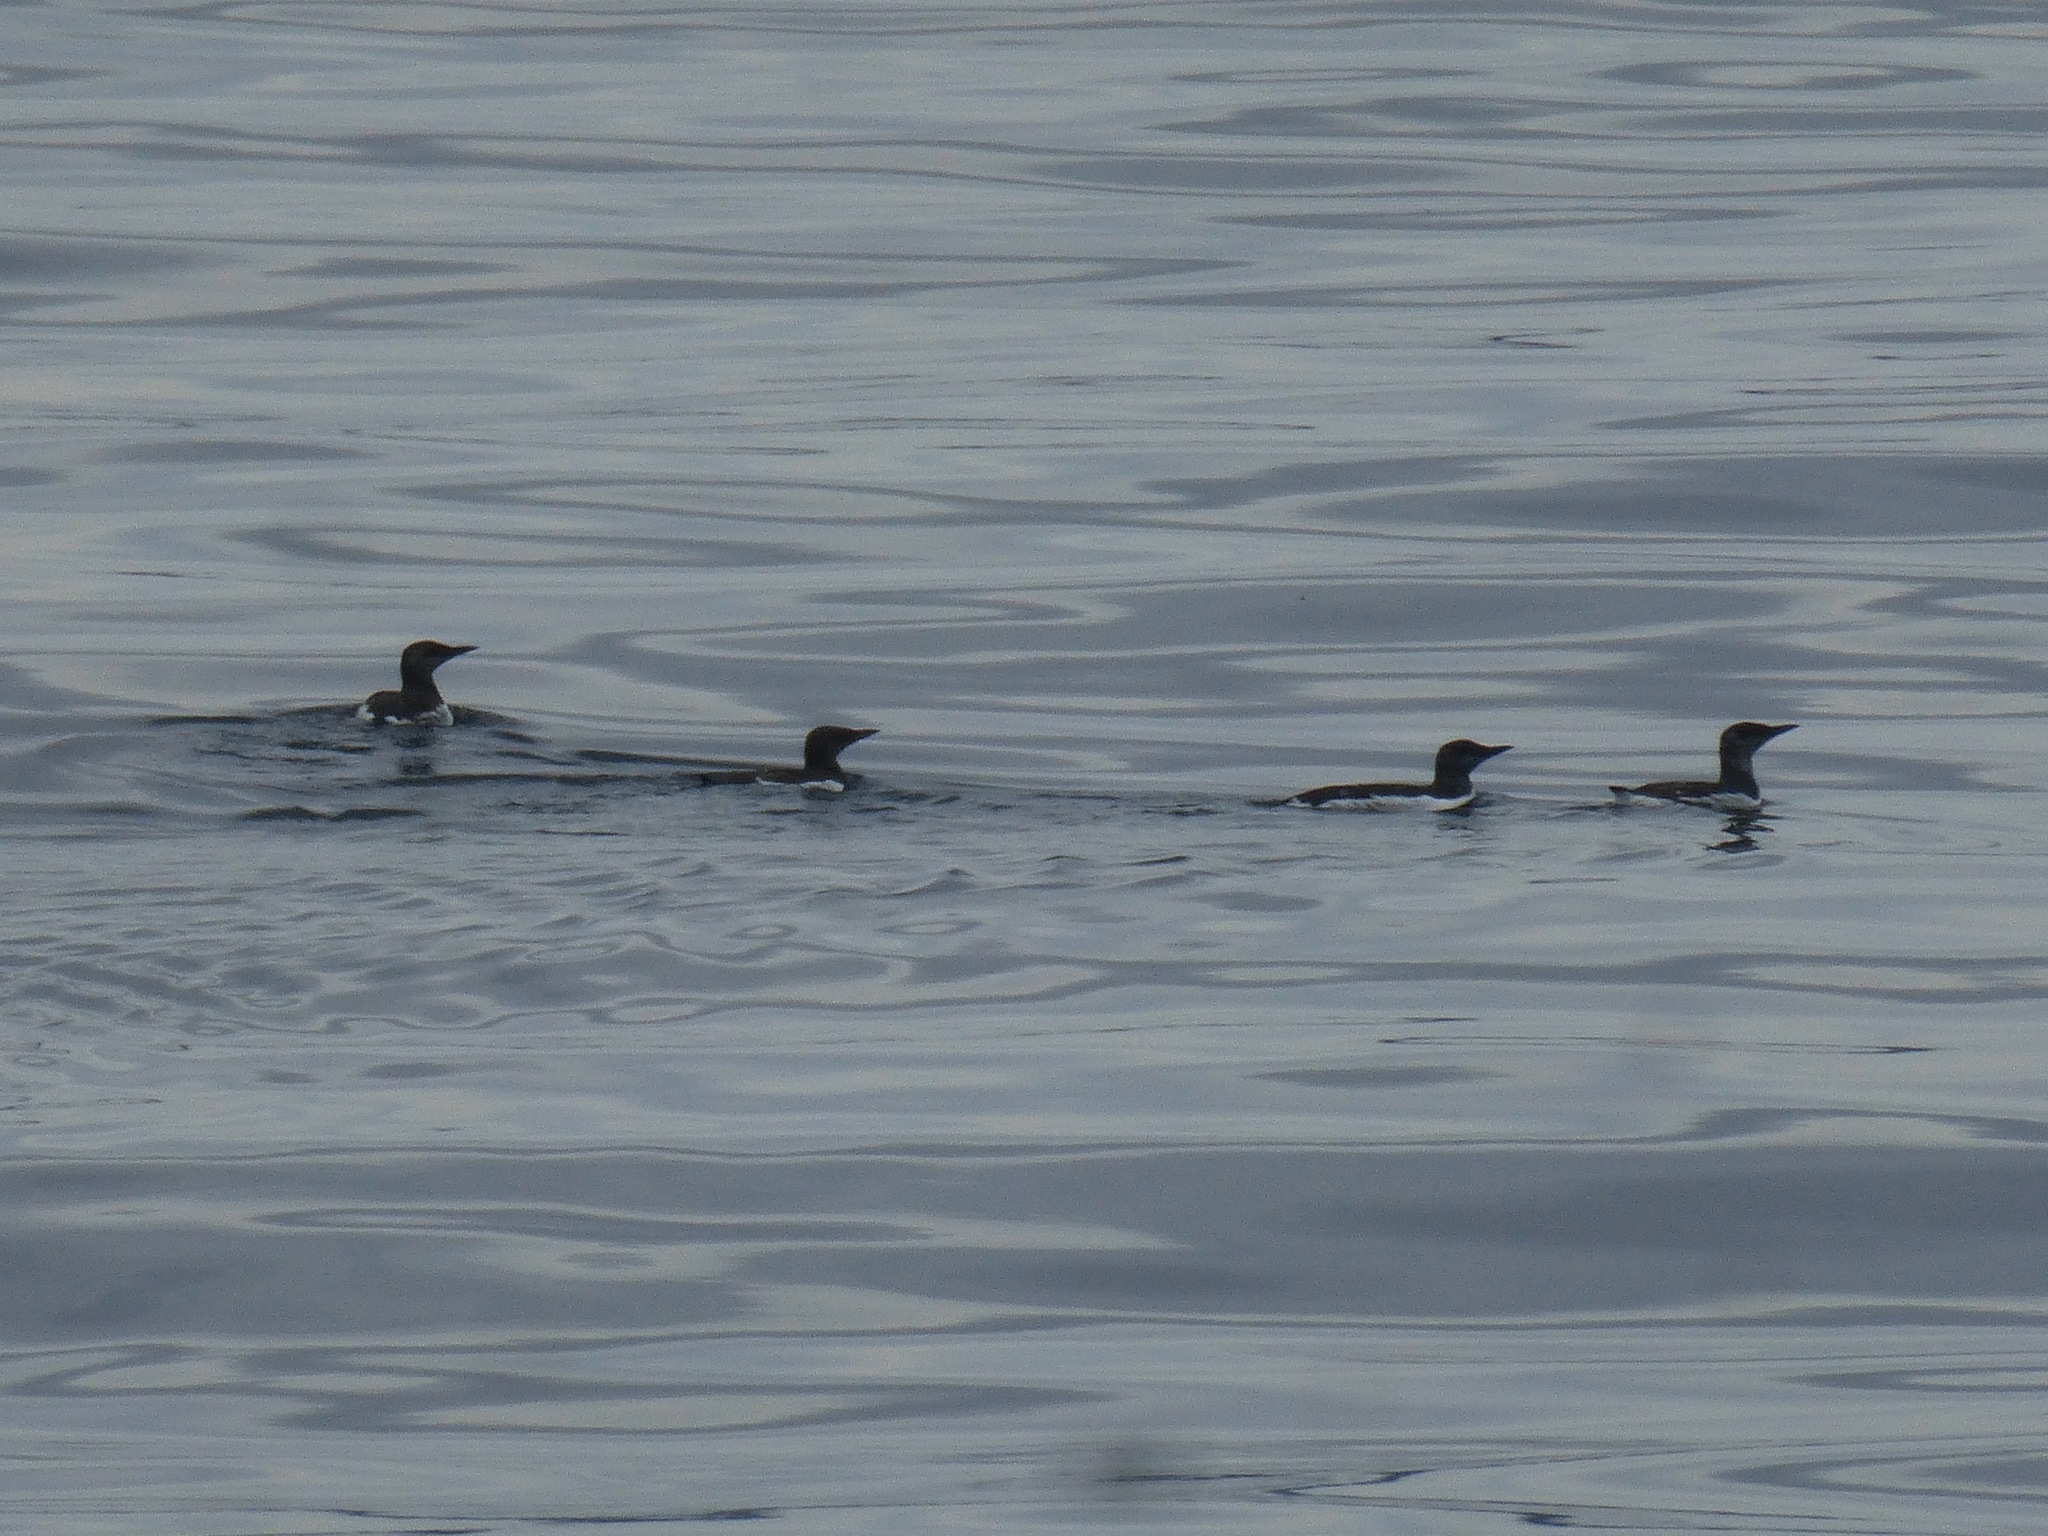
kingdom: Animalia
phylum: Chordata
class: Aves
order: Charadriiformes
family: Alcidae
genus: Uria
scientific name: Uria aalge
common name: Common murre
